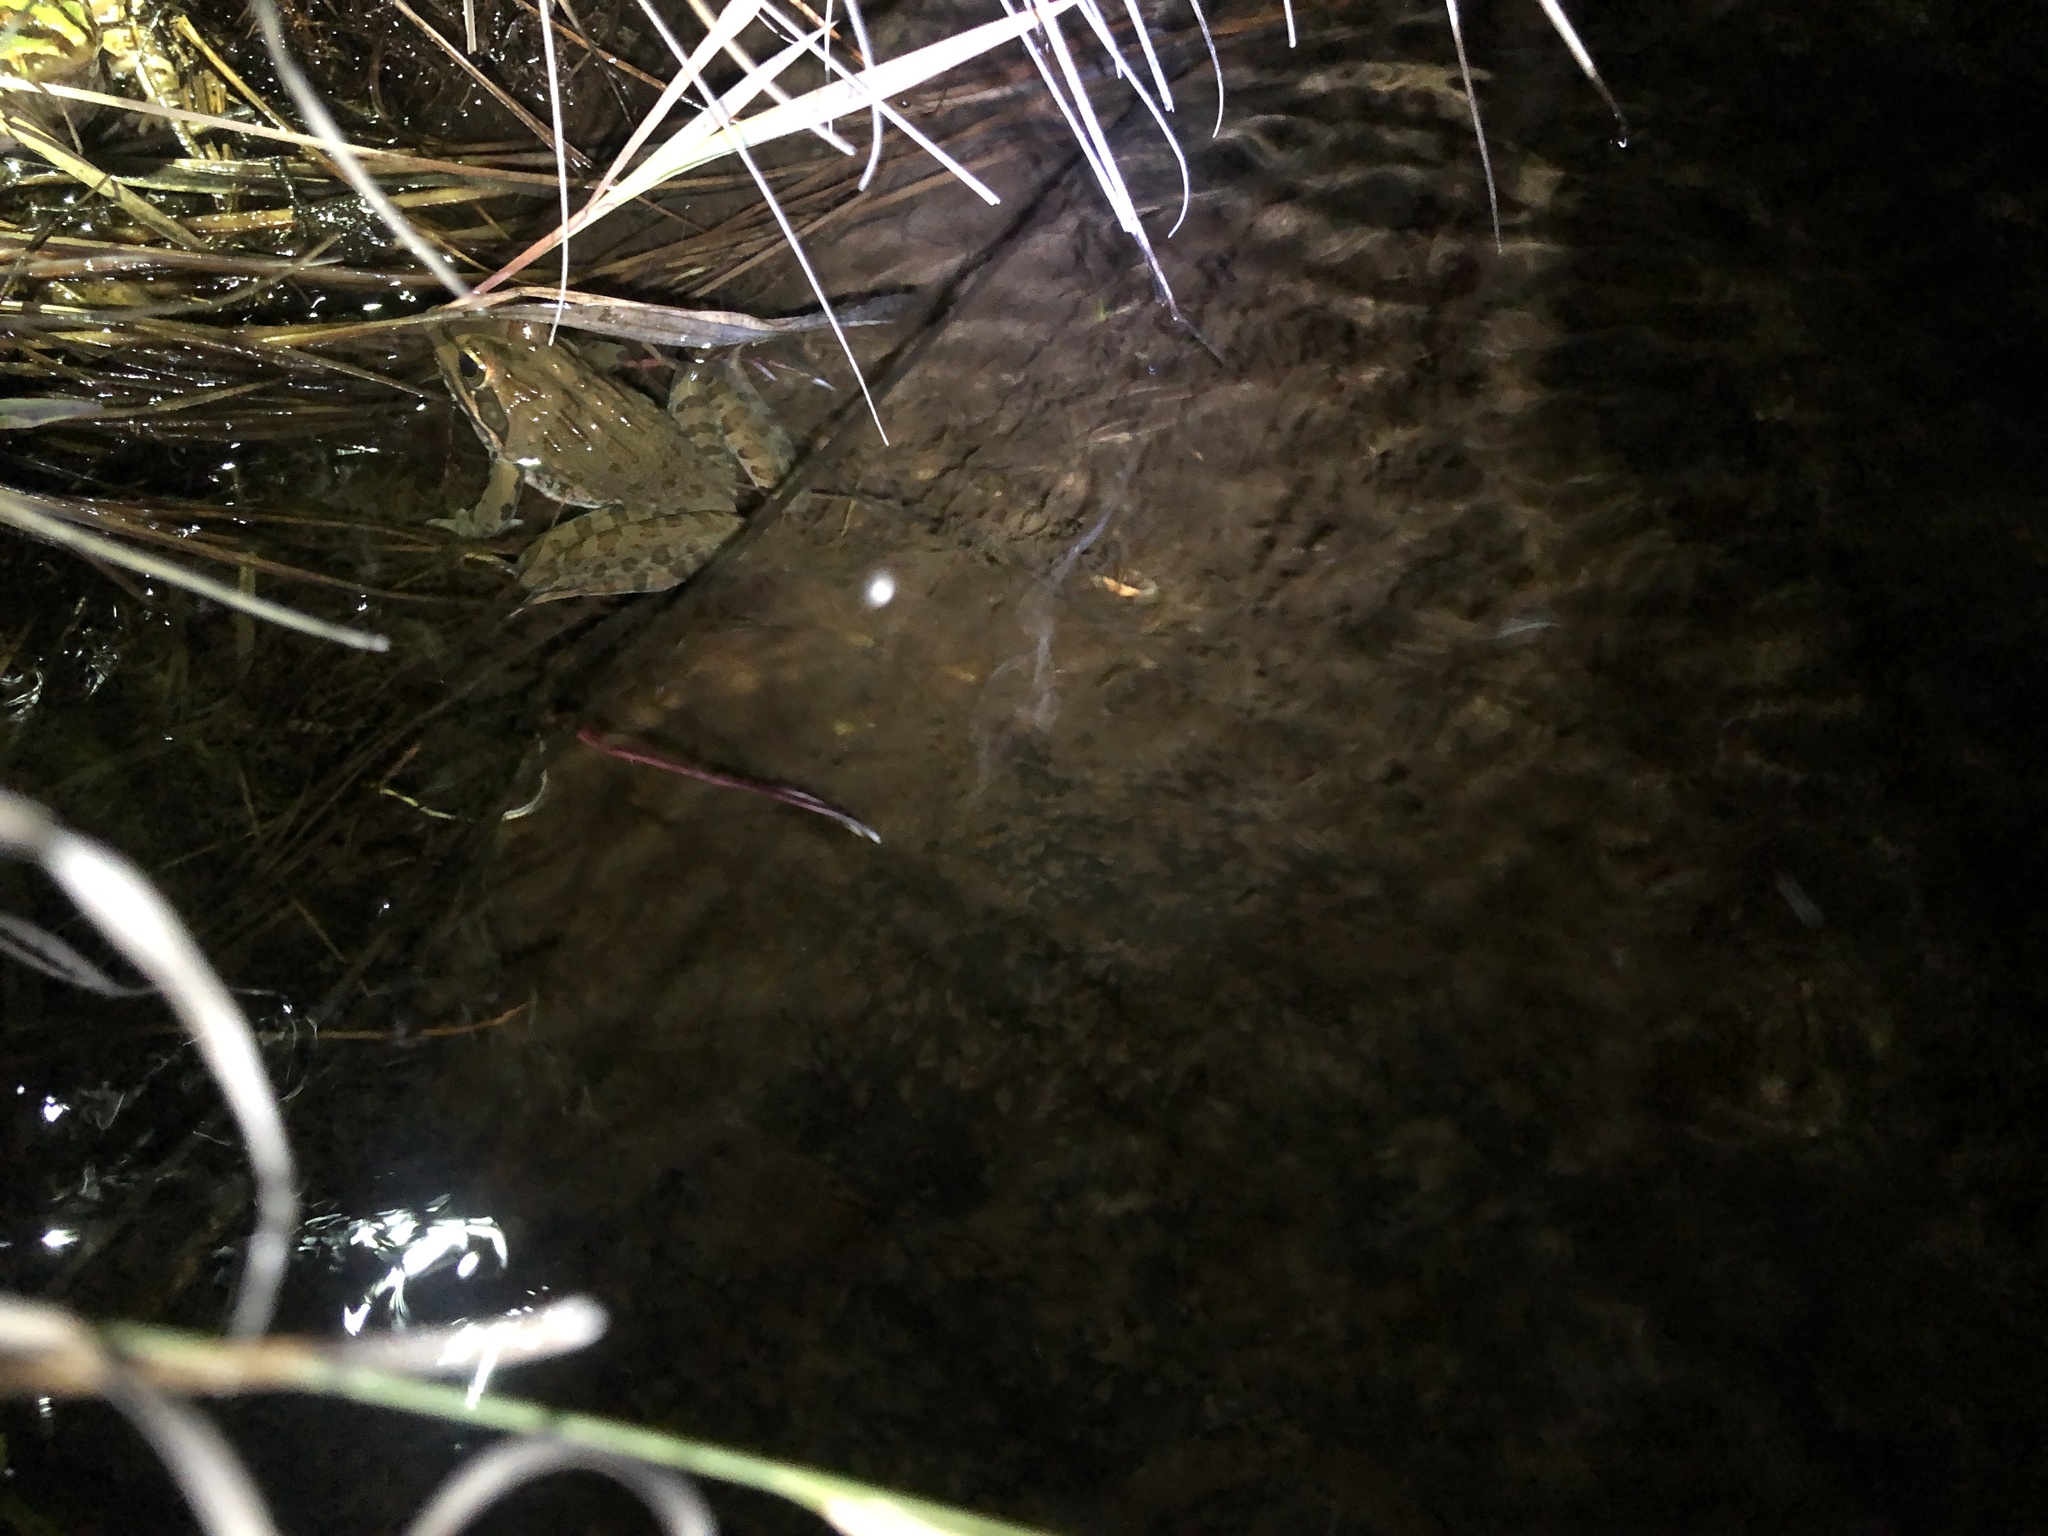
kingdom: Animalia
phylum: Chordata
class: Amphibia
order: Anura
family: Pyxicephalidae
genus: Amietia
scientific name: Amietia delalandii
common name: Delalande's river frog
